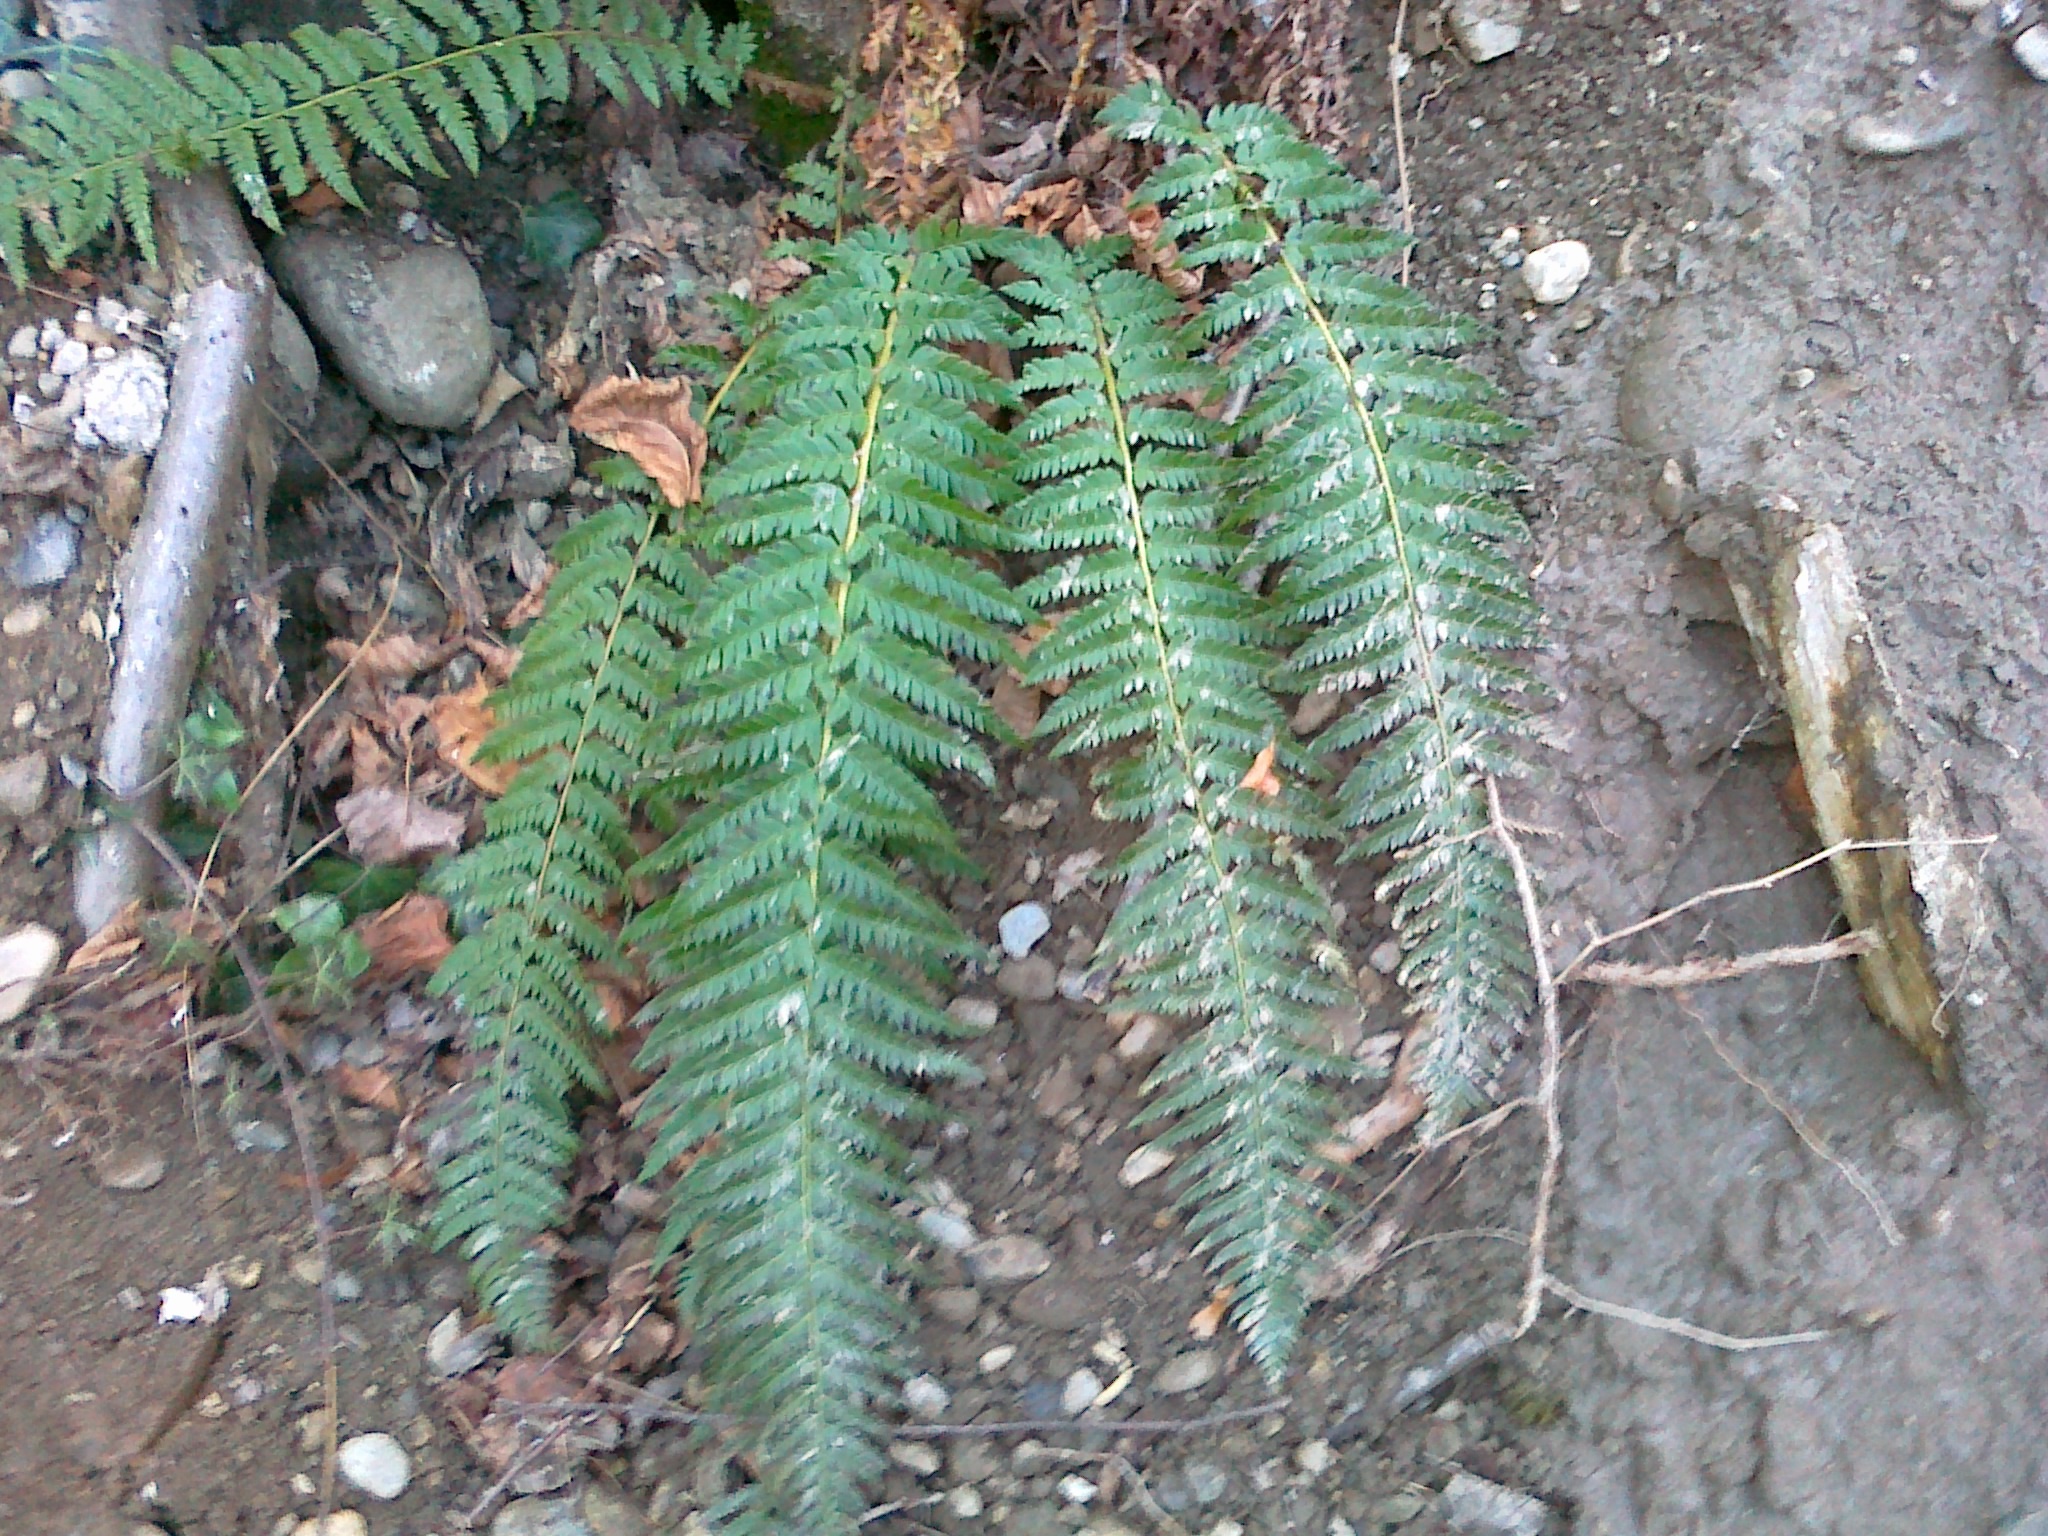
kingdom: Plantae
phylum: Tracheophyta
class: Polypodiopsida
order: Polypodiales
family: Dryopteridaceae
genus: Polystichum
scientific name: Polystichum aculeatum
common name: Hard shield-fern
